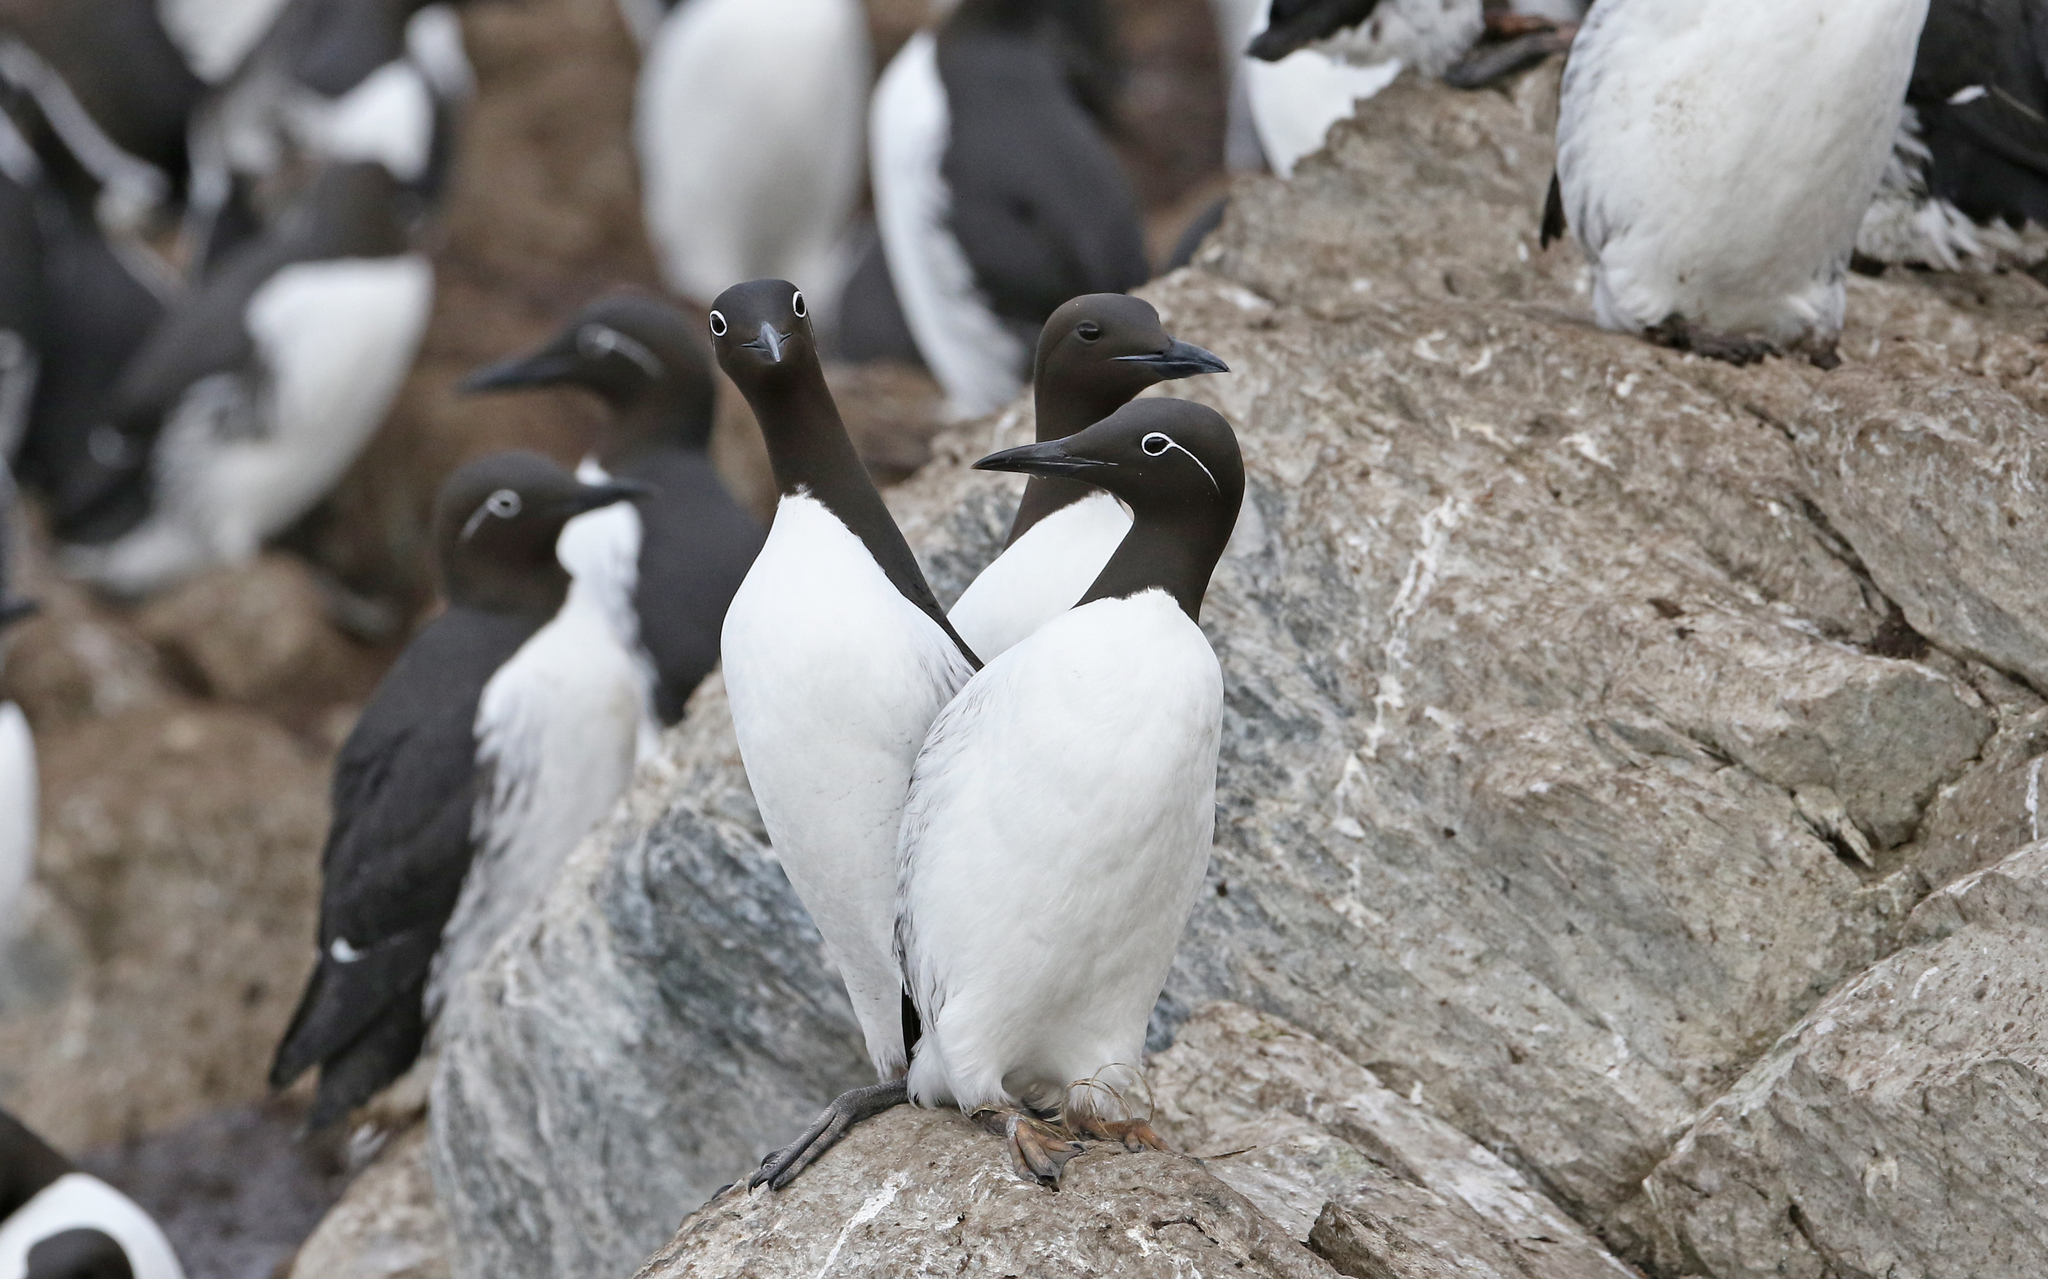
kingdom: Animalia
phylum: Chordata
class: Aves
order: Charadriiformes
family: Alcidae
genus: Uria
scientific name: Uria aalge
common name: Common murre
